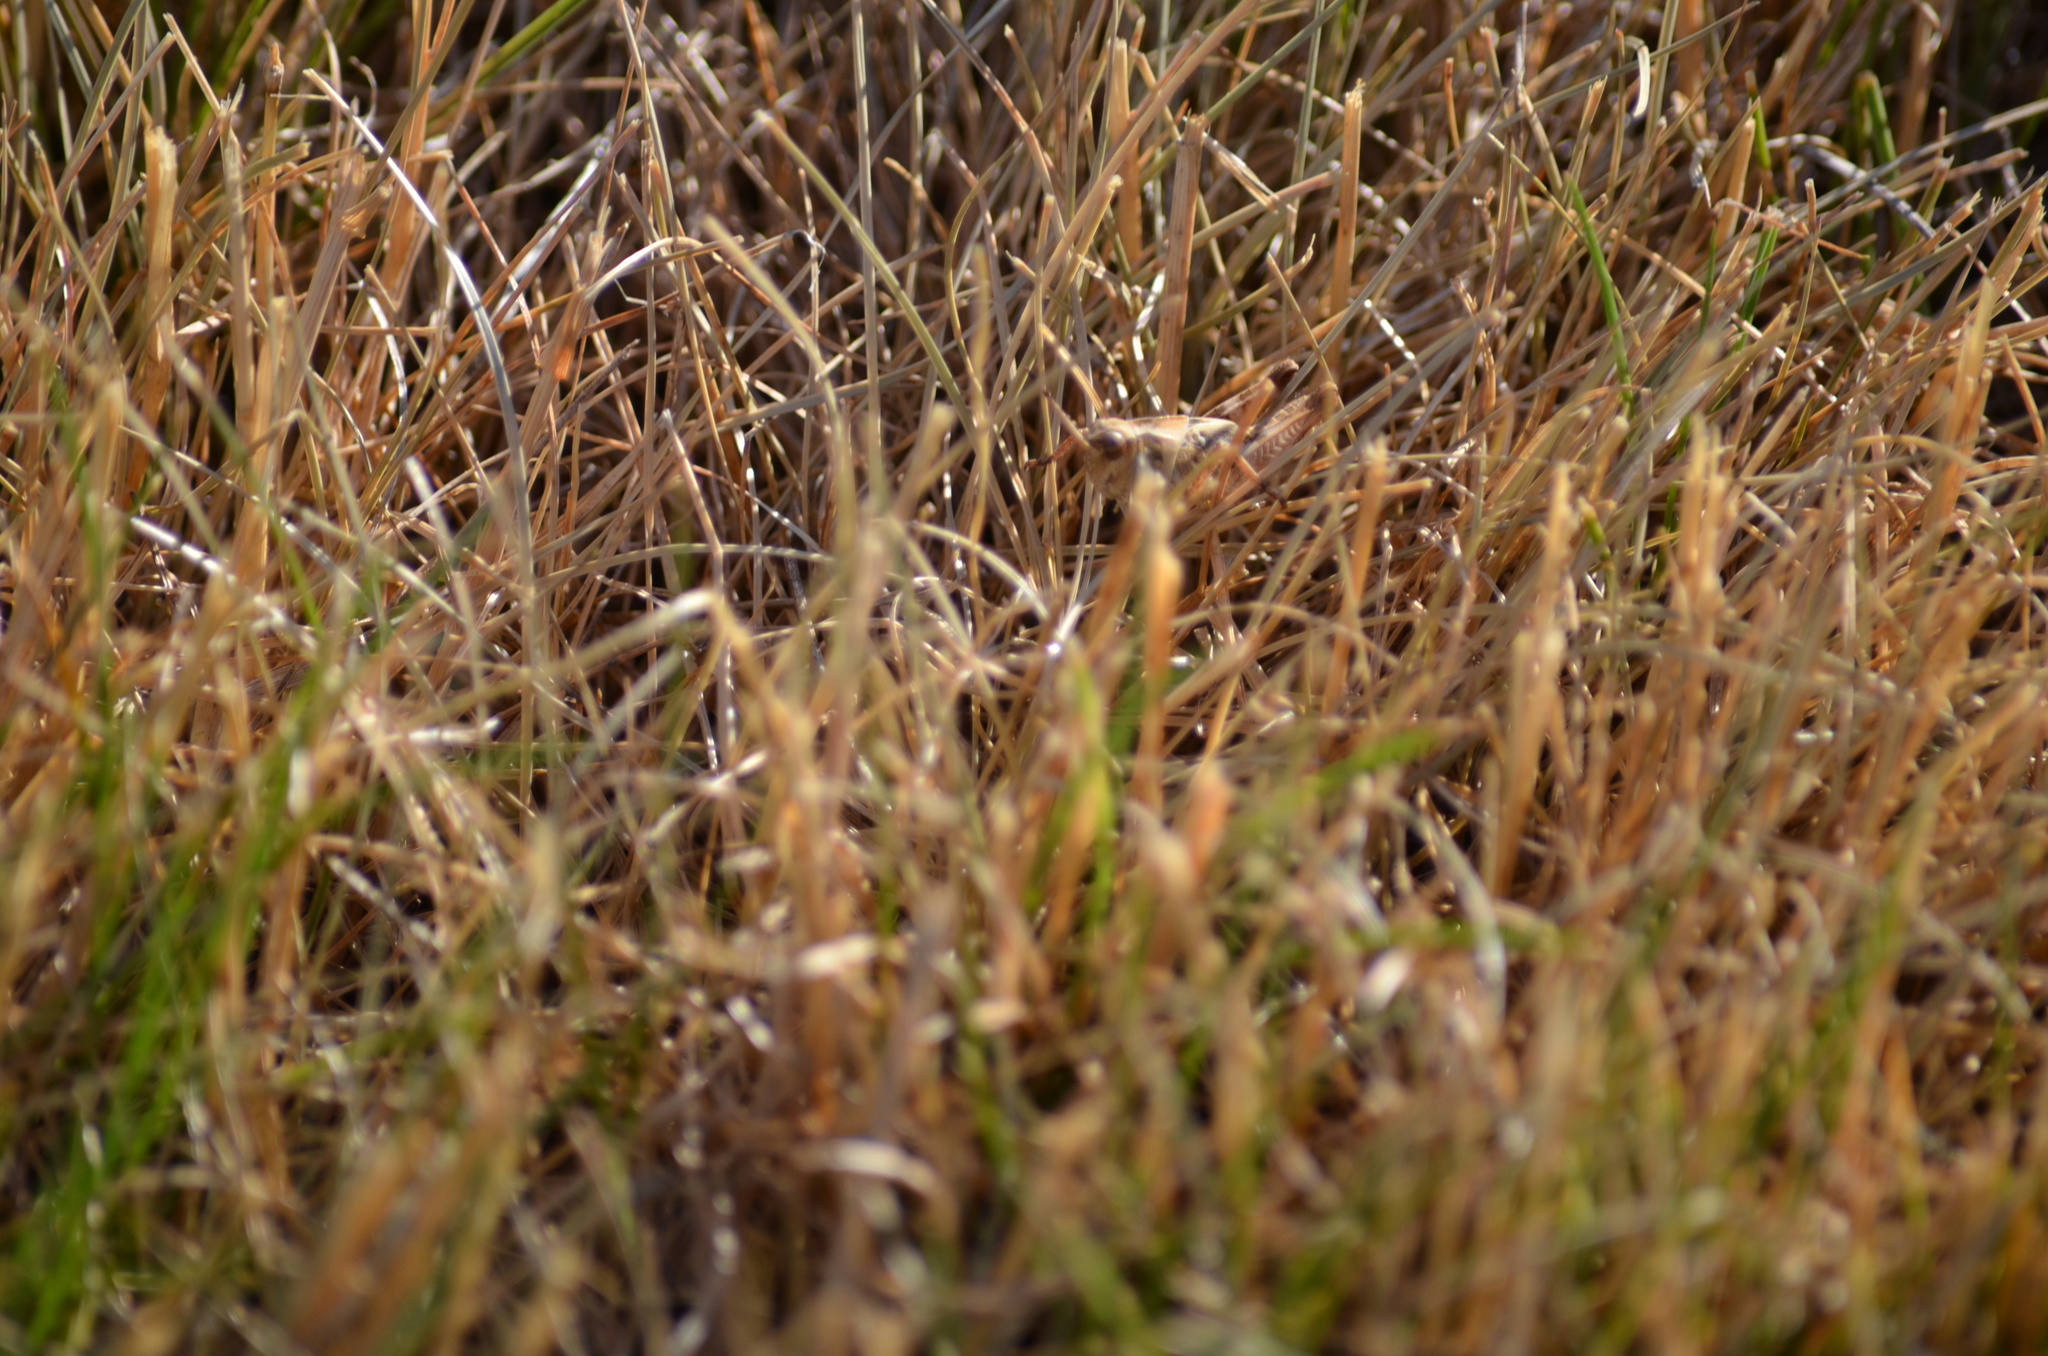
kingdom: Animalia
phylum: Arthropoda
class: Insecta
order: Orthoptera
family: Acrididae
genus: Camnula
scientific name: Camnula pellucida
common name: Clear-winged grasshopper
